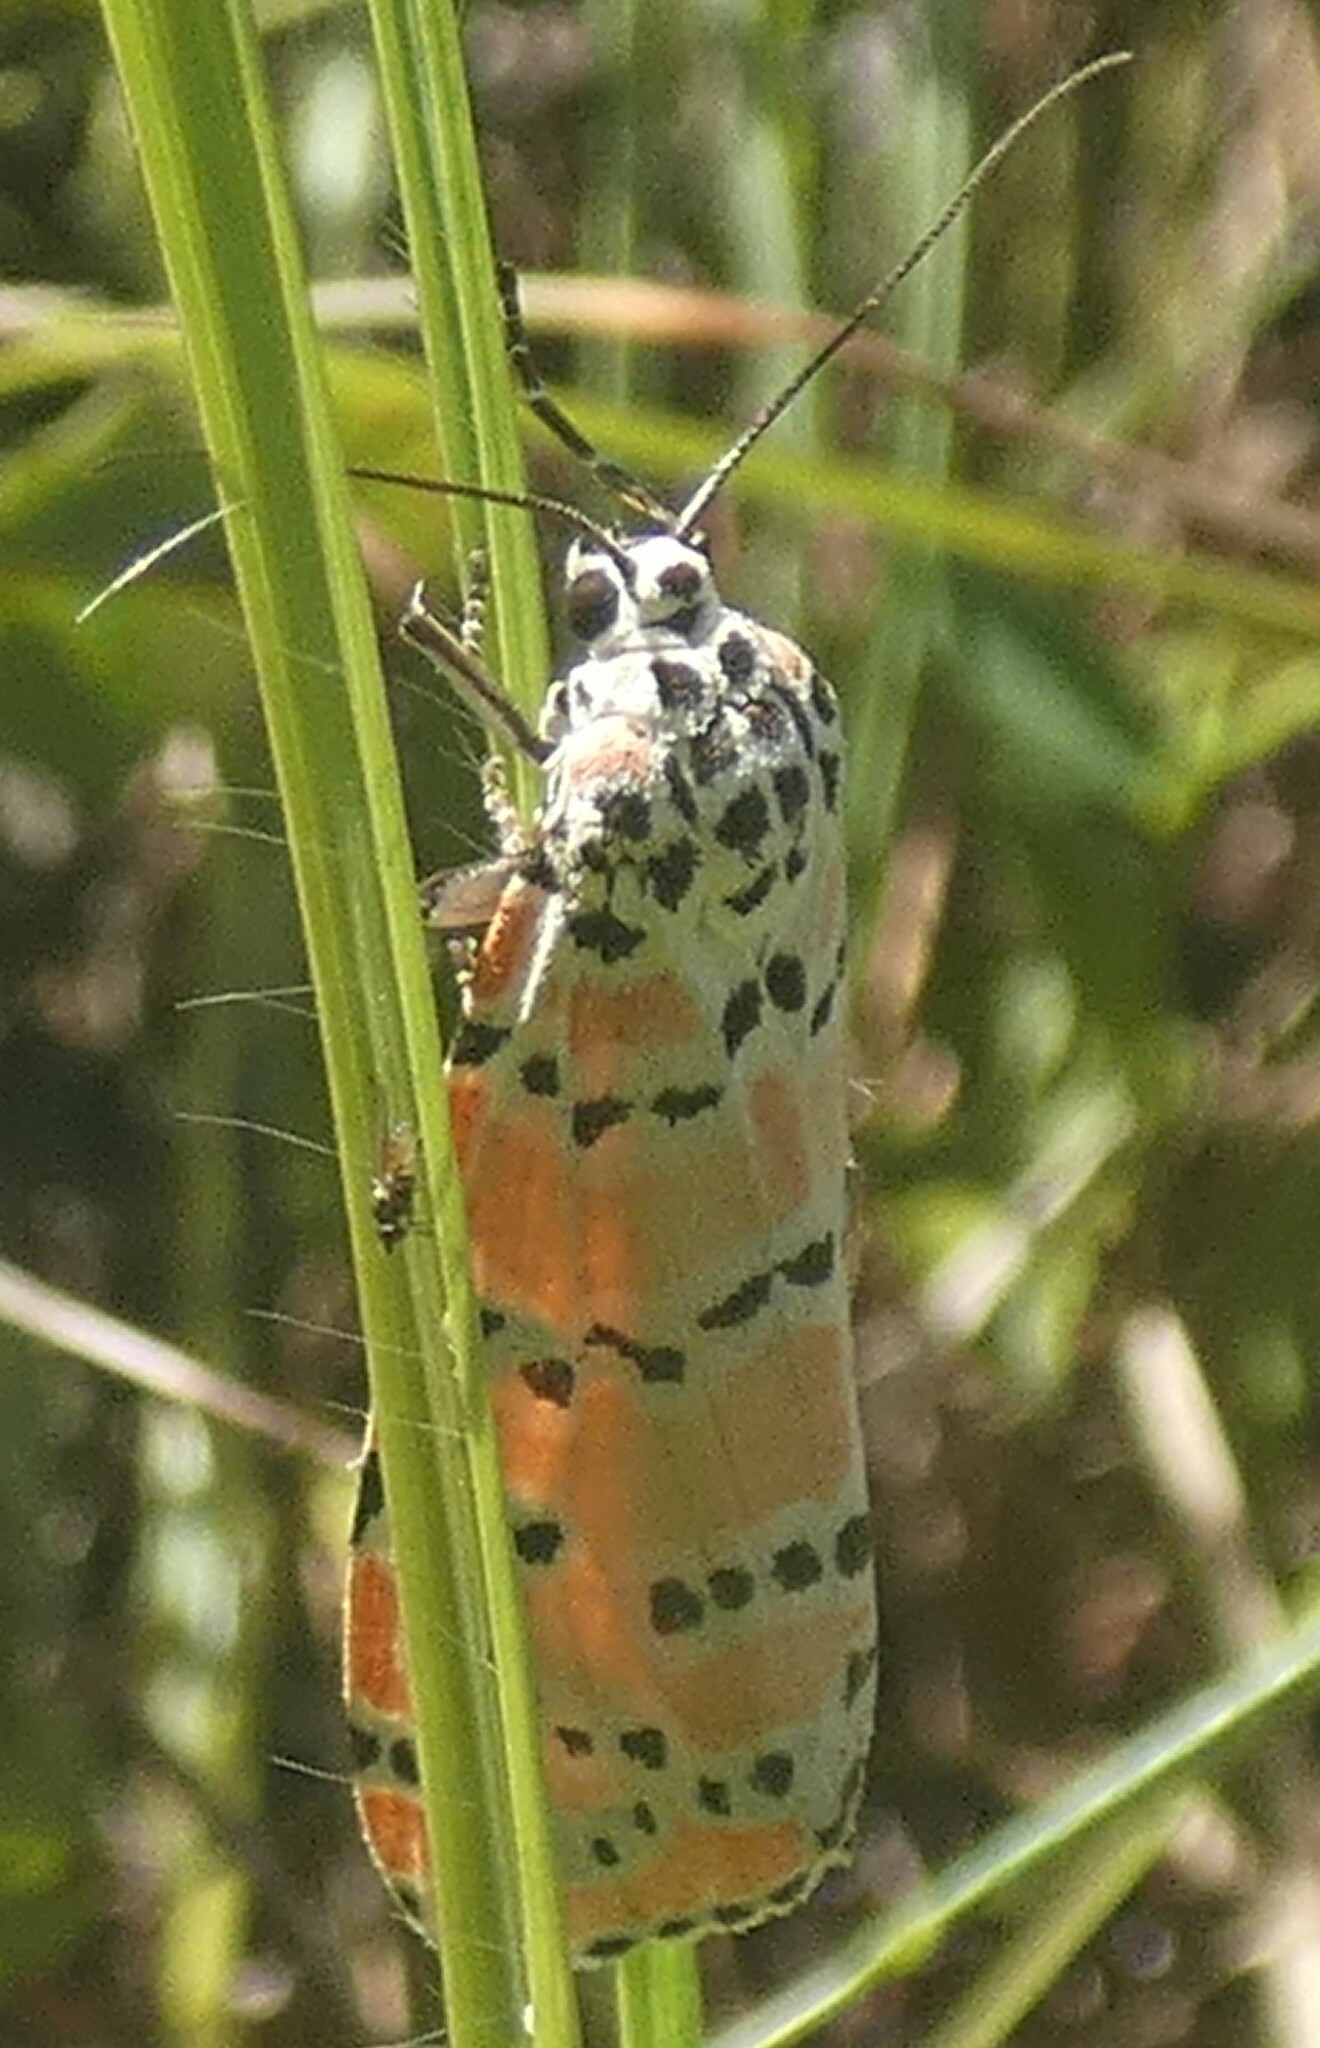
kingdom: Animalia
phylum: Arthropoda
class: Insecta
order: Lepidoptera
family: Erebidae
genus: Utetheisa
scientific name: Utetheisa ornatrix
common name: Beautiful utetheisa
